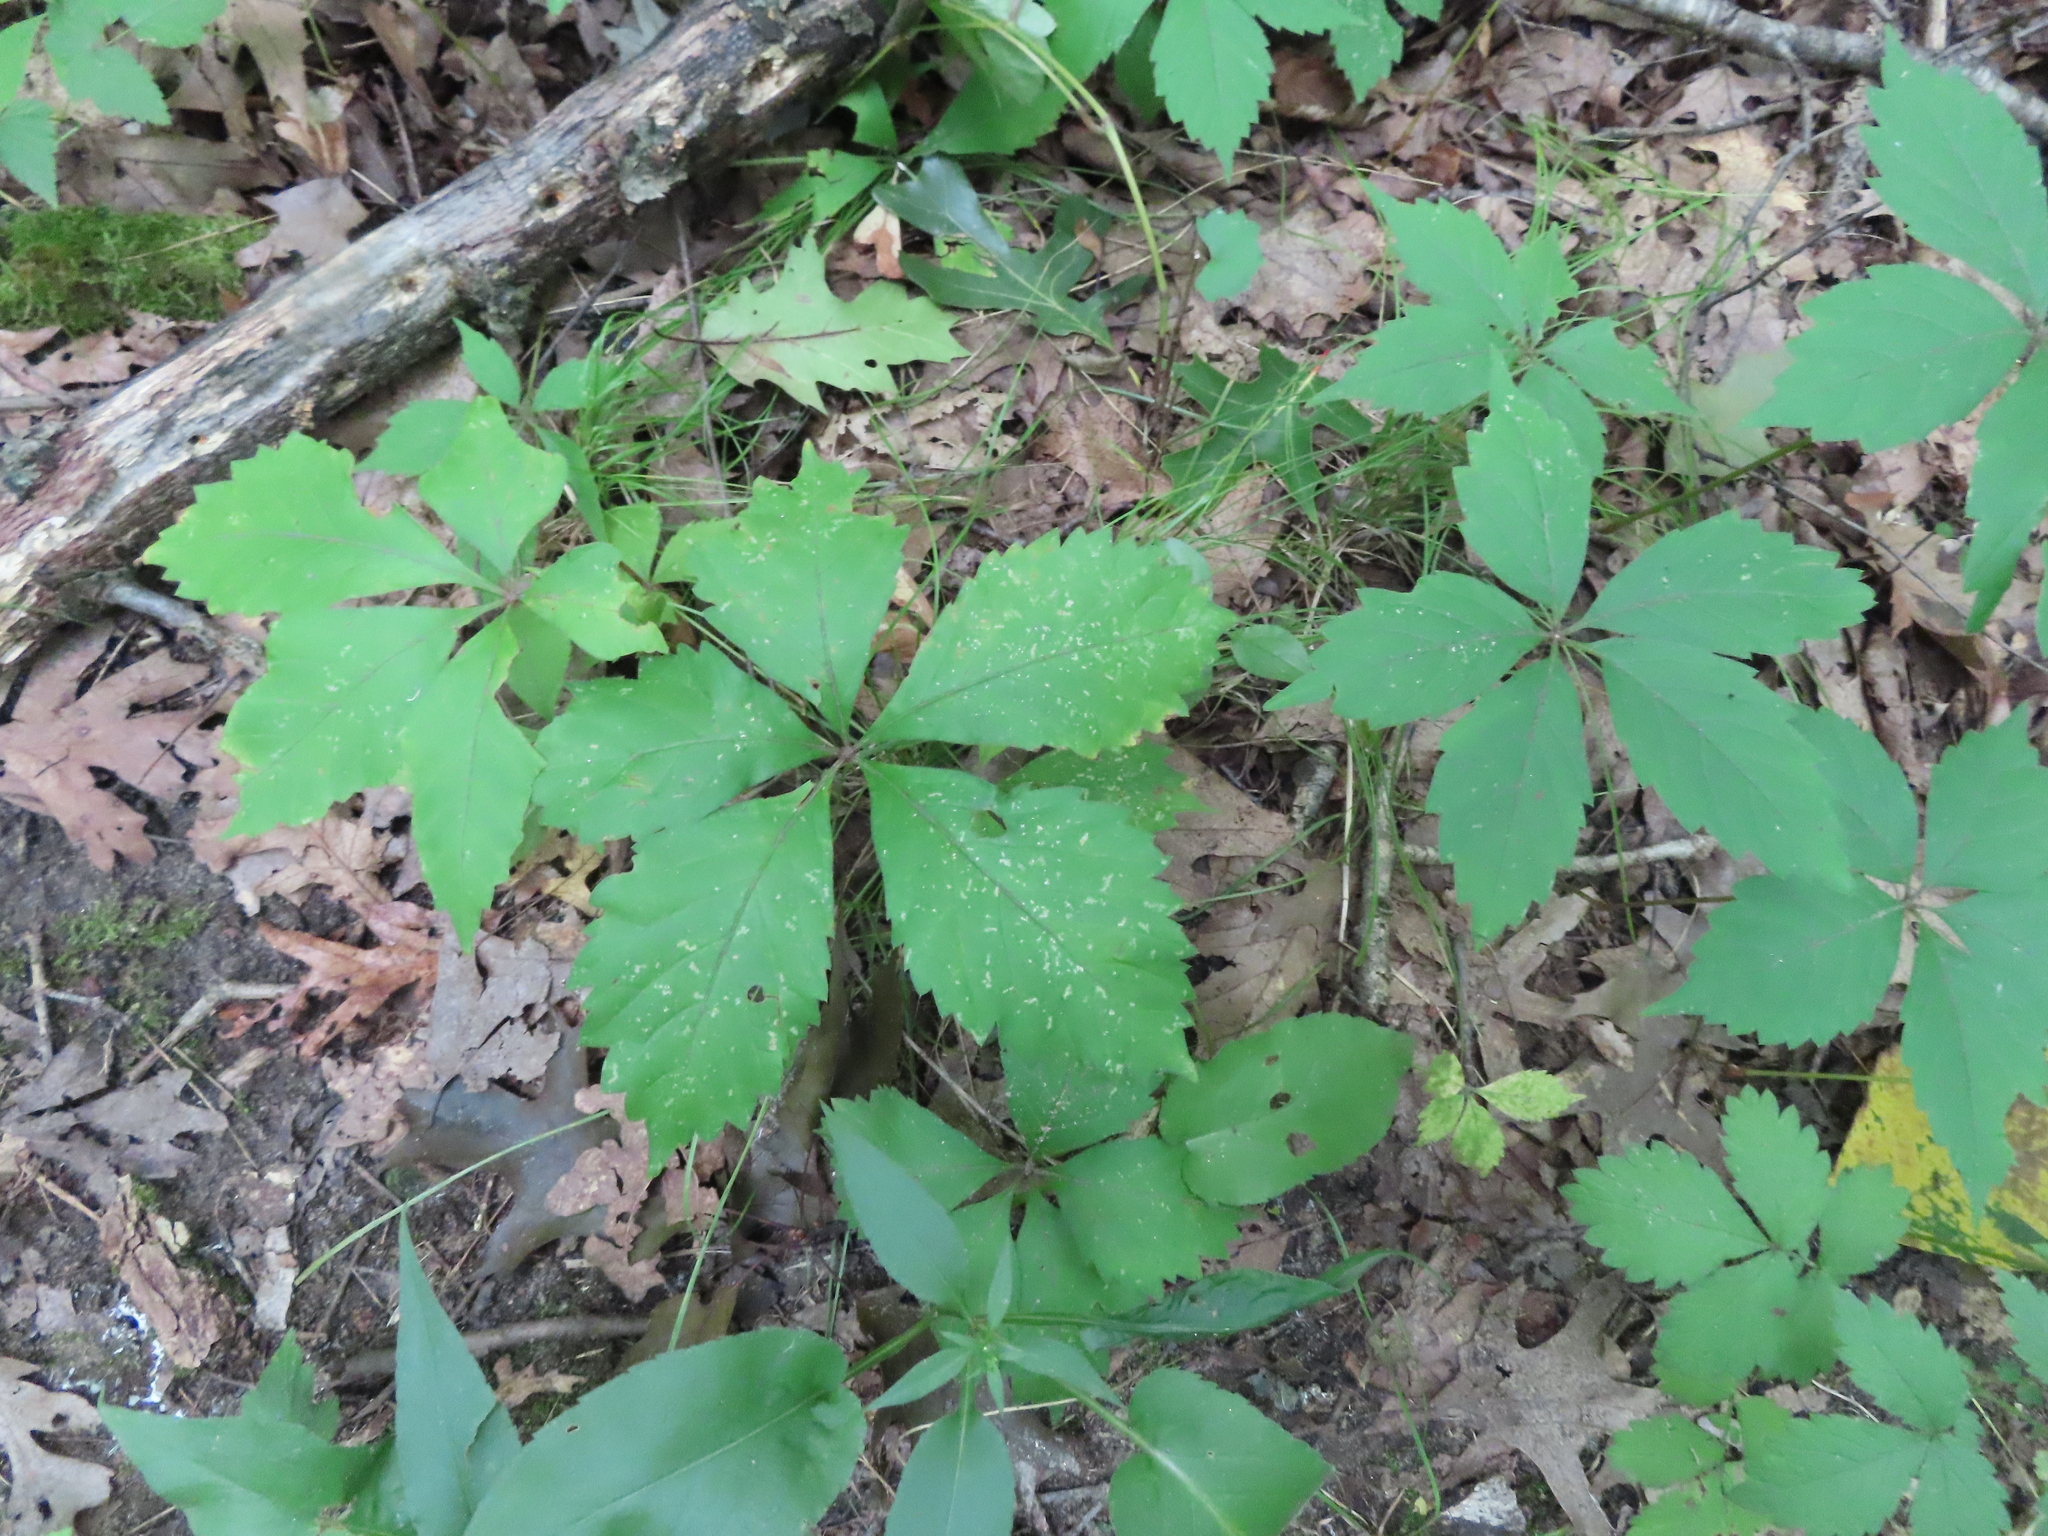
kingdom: Plantae
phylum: Tracheophyta
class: Magnoliopsida
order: Vitales
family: Vitaceae
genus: Parthenocissus
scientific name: Parthenocissus quinquefolia
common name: Virginia-creeper
